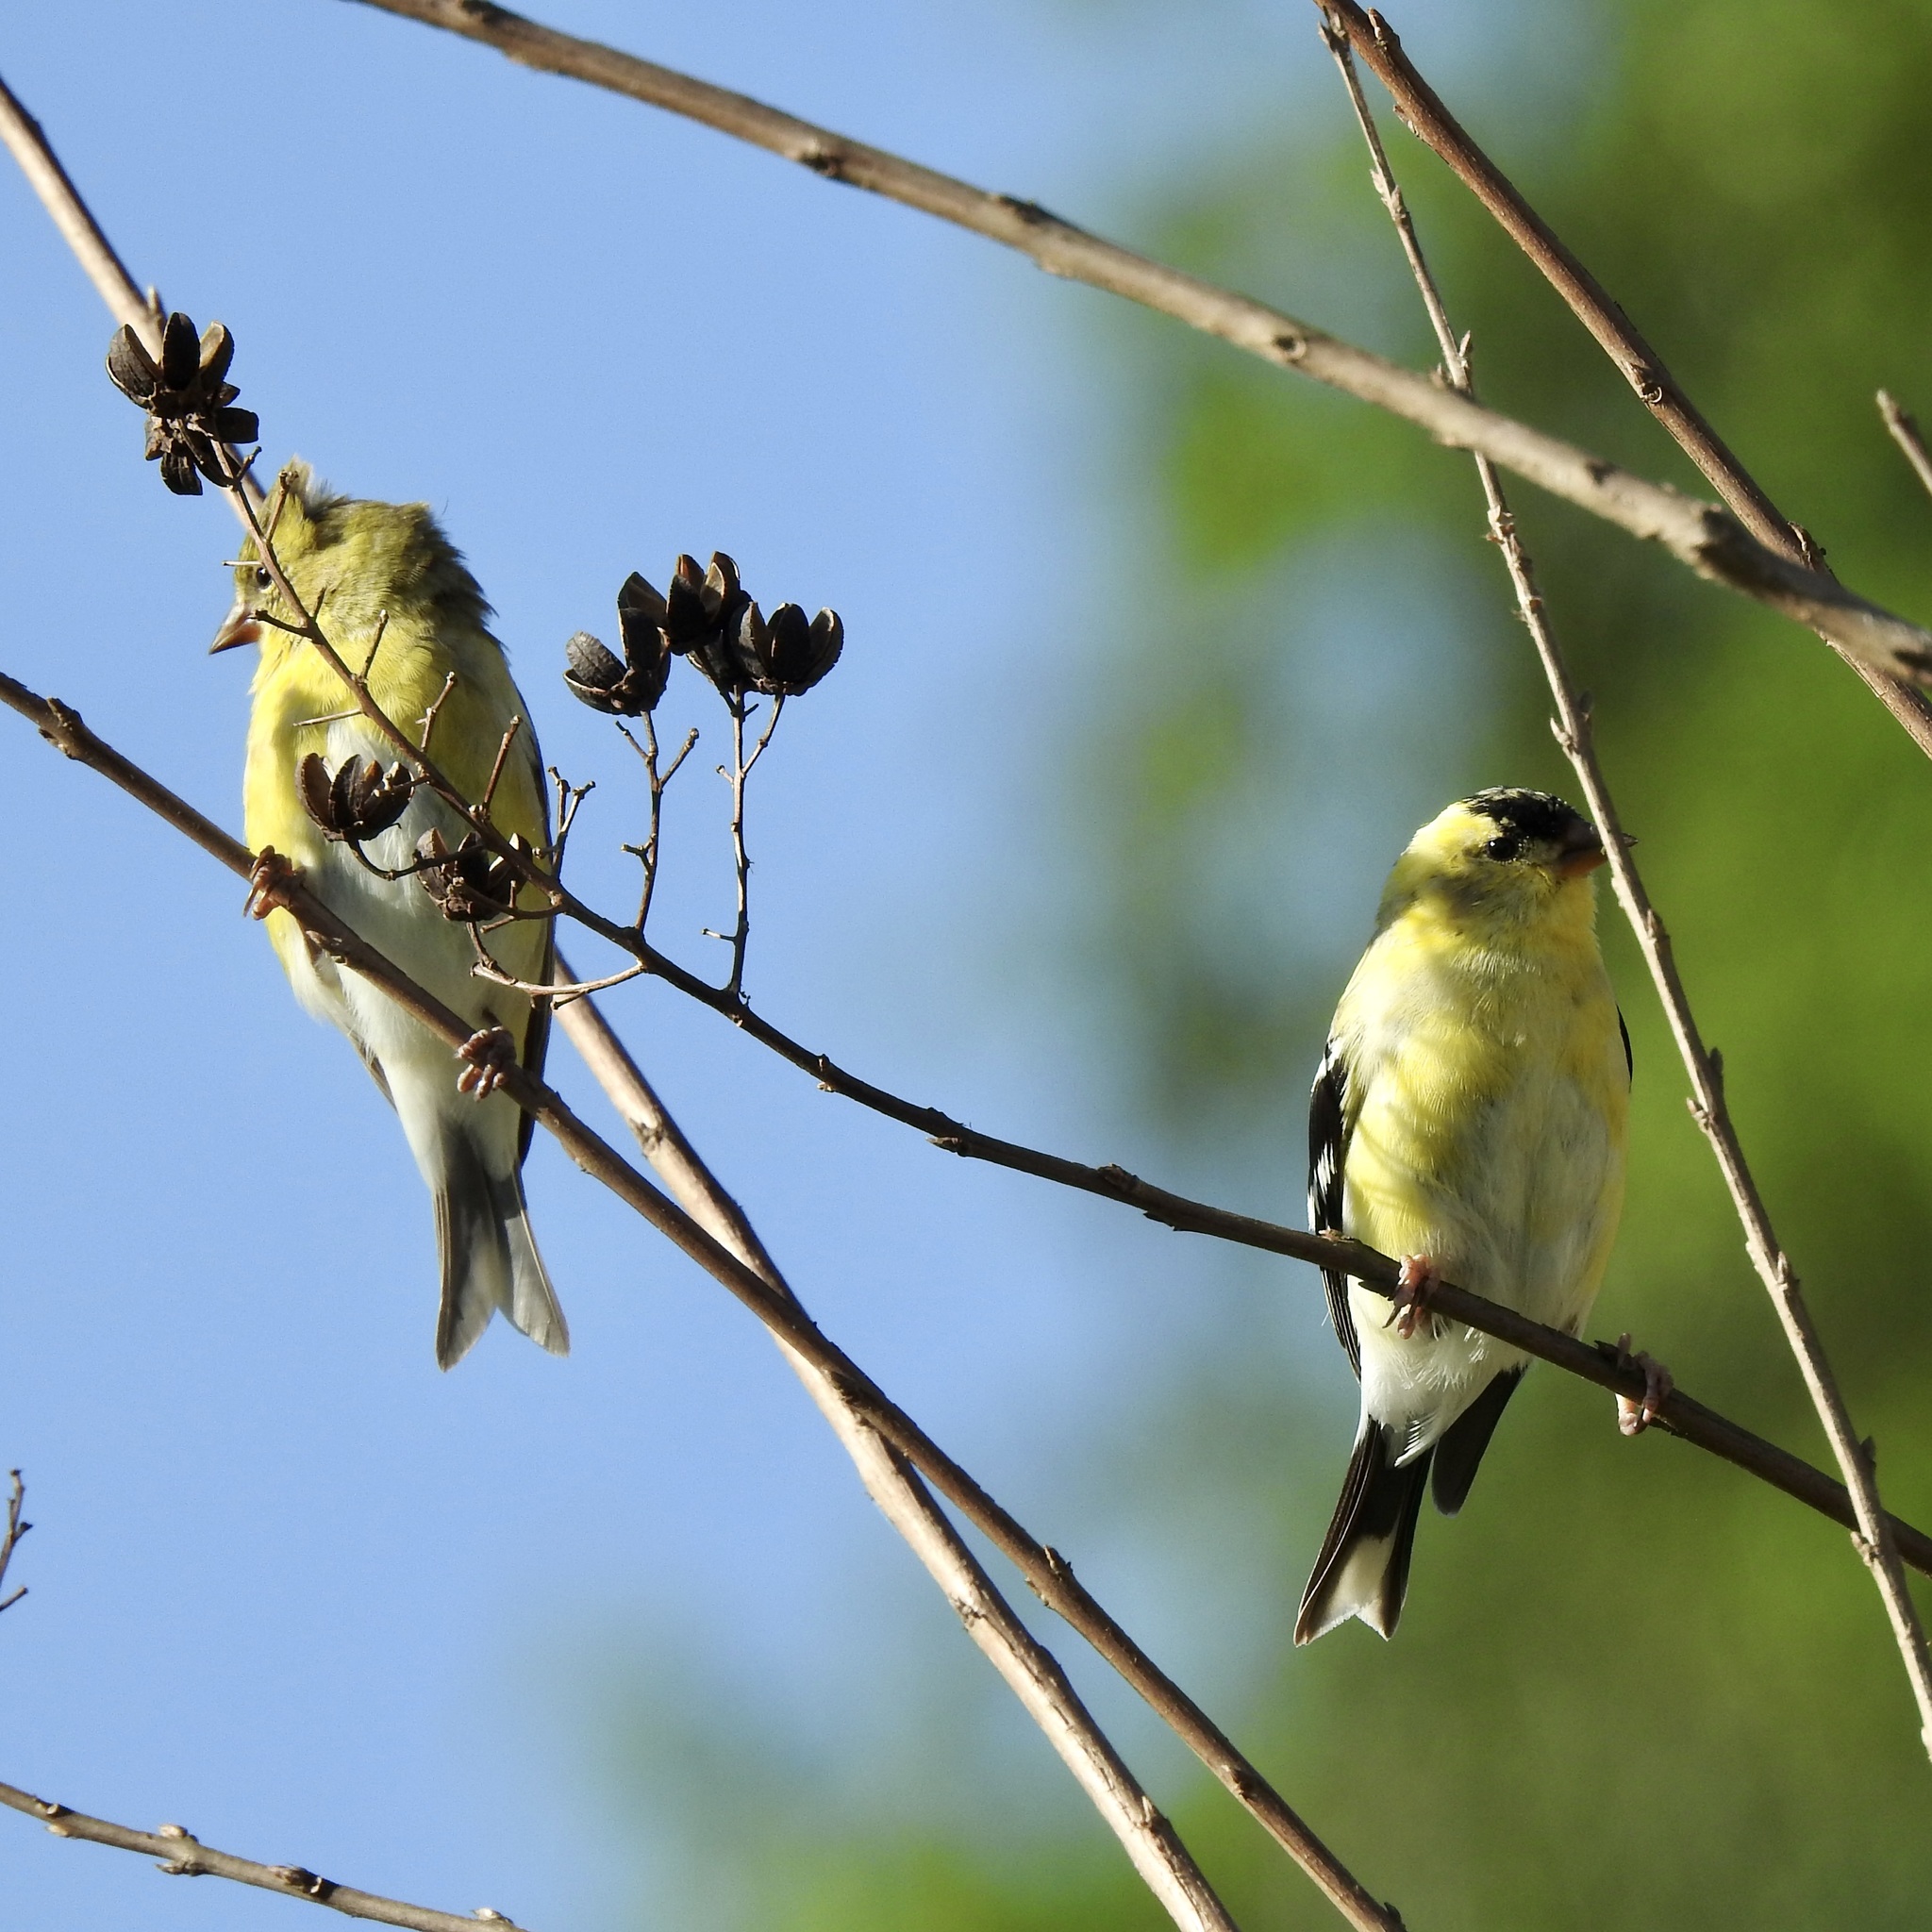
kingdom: Animalia
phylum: Chordata
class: Aves
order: Passeriformes
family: Fringillidae
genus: Spinus
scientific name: Spinus tristis
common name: American goldfinch
